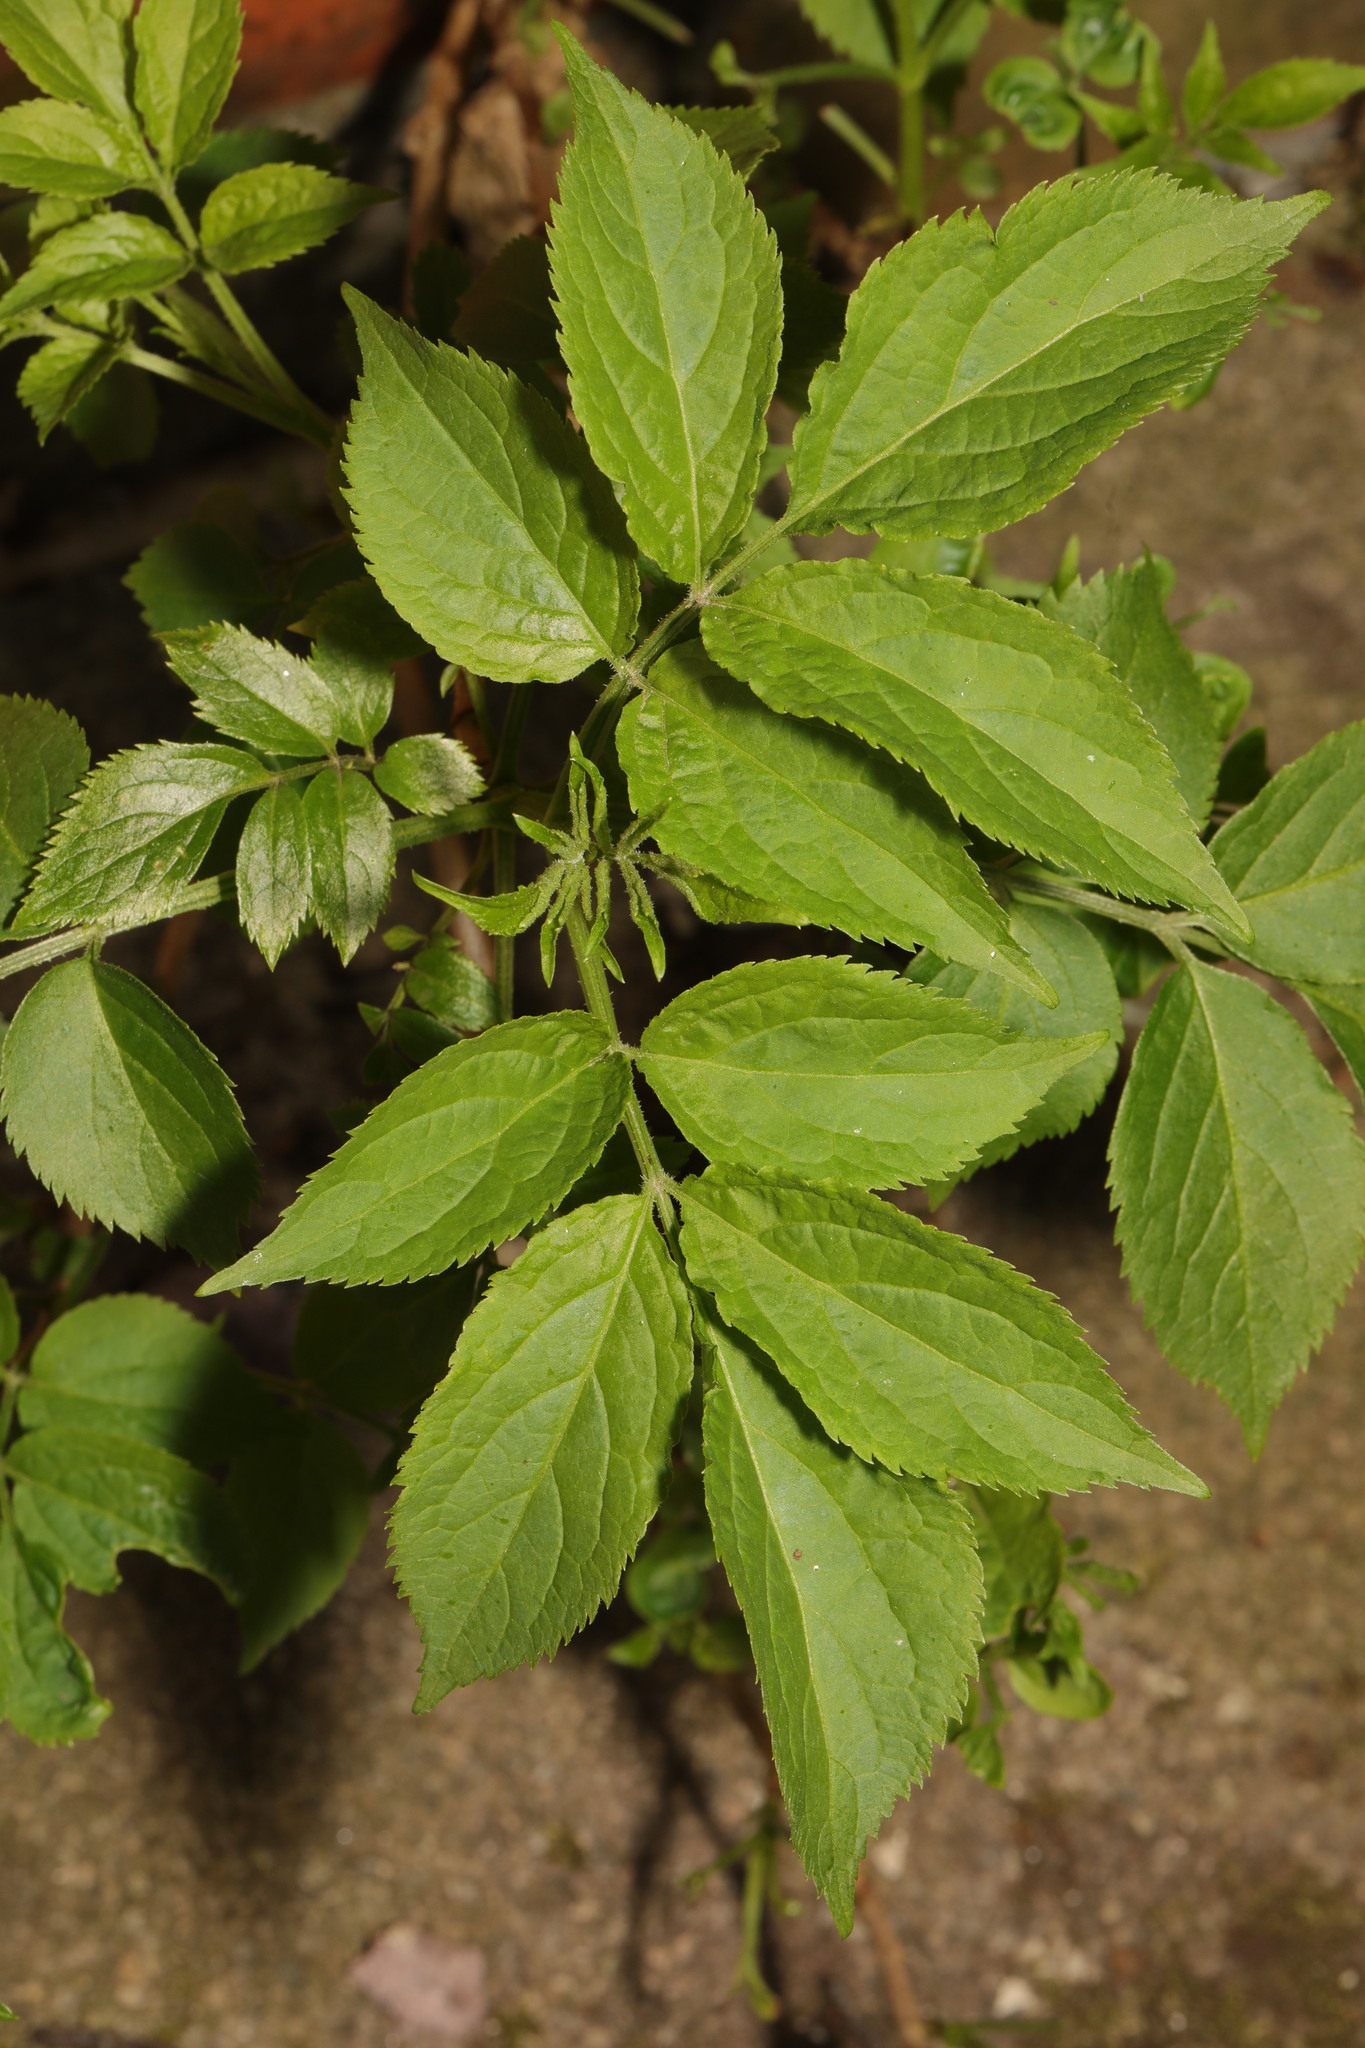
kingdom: Plantae
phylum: Tracheophyta
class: Magnoliopsida
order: Dipsacales
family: Viburnaceae
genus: Sambucus
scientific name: Sambucus nigra
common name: Elder
